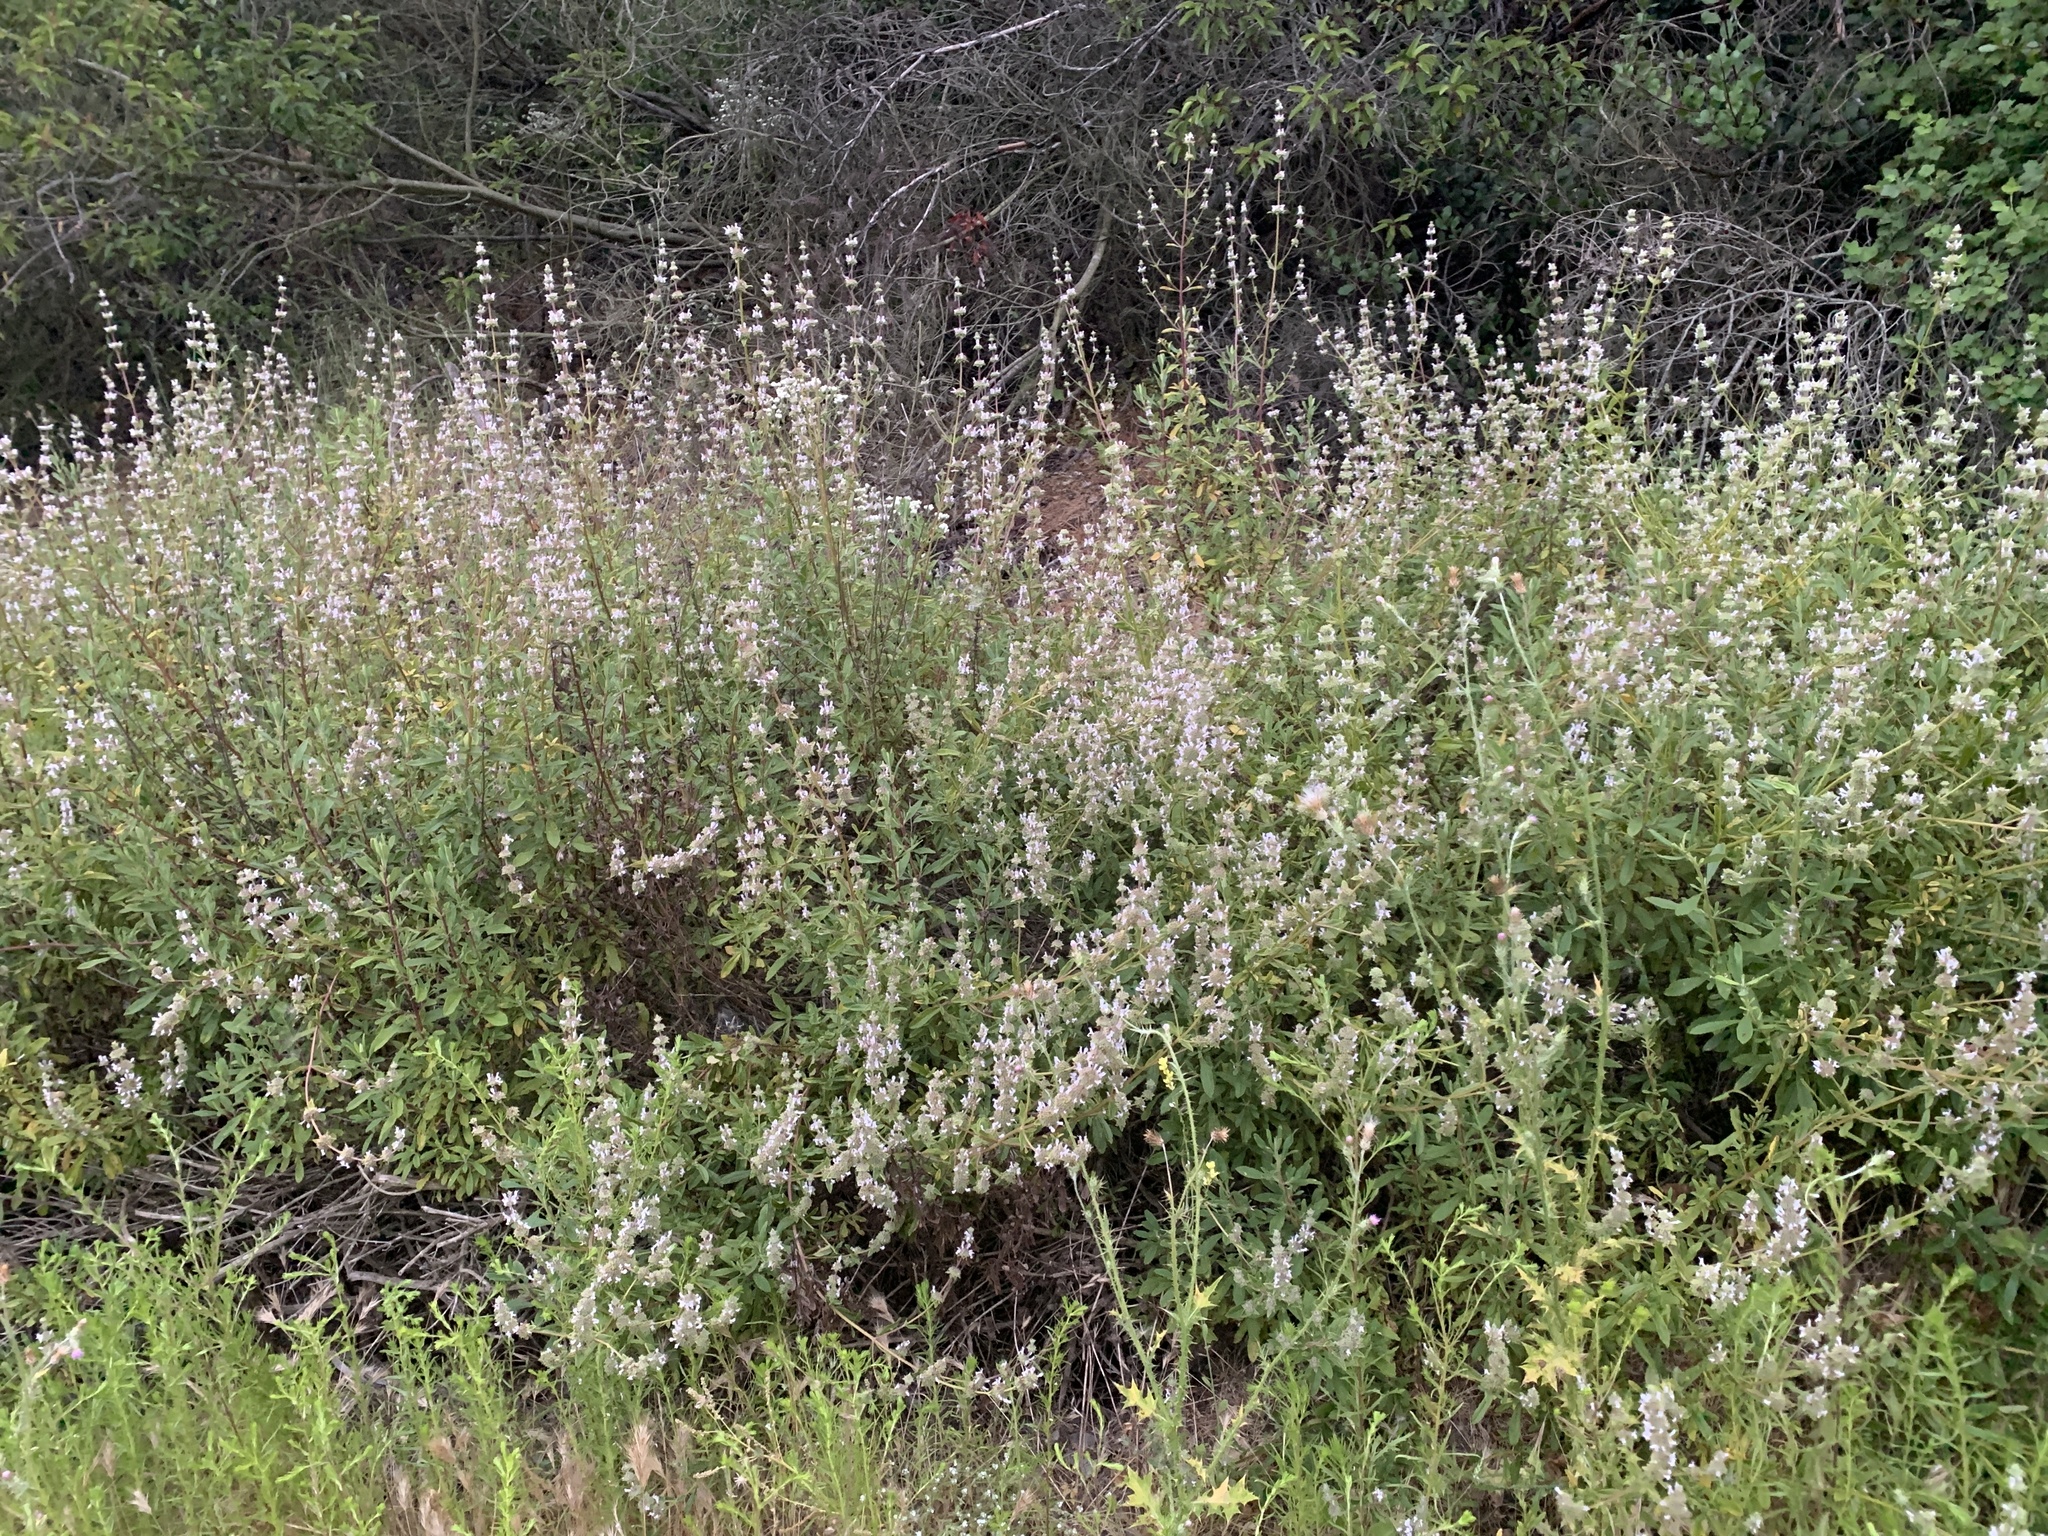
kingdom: Plantae
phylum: Tracheophyta
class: Magnoliopsida
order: Lamiales
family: Lamiaceae
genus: Salvia
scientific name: Salvia mellifera
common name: Black sage
